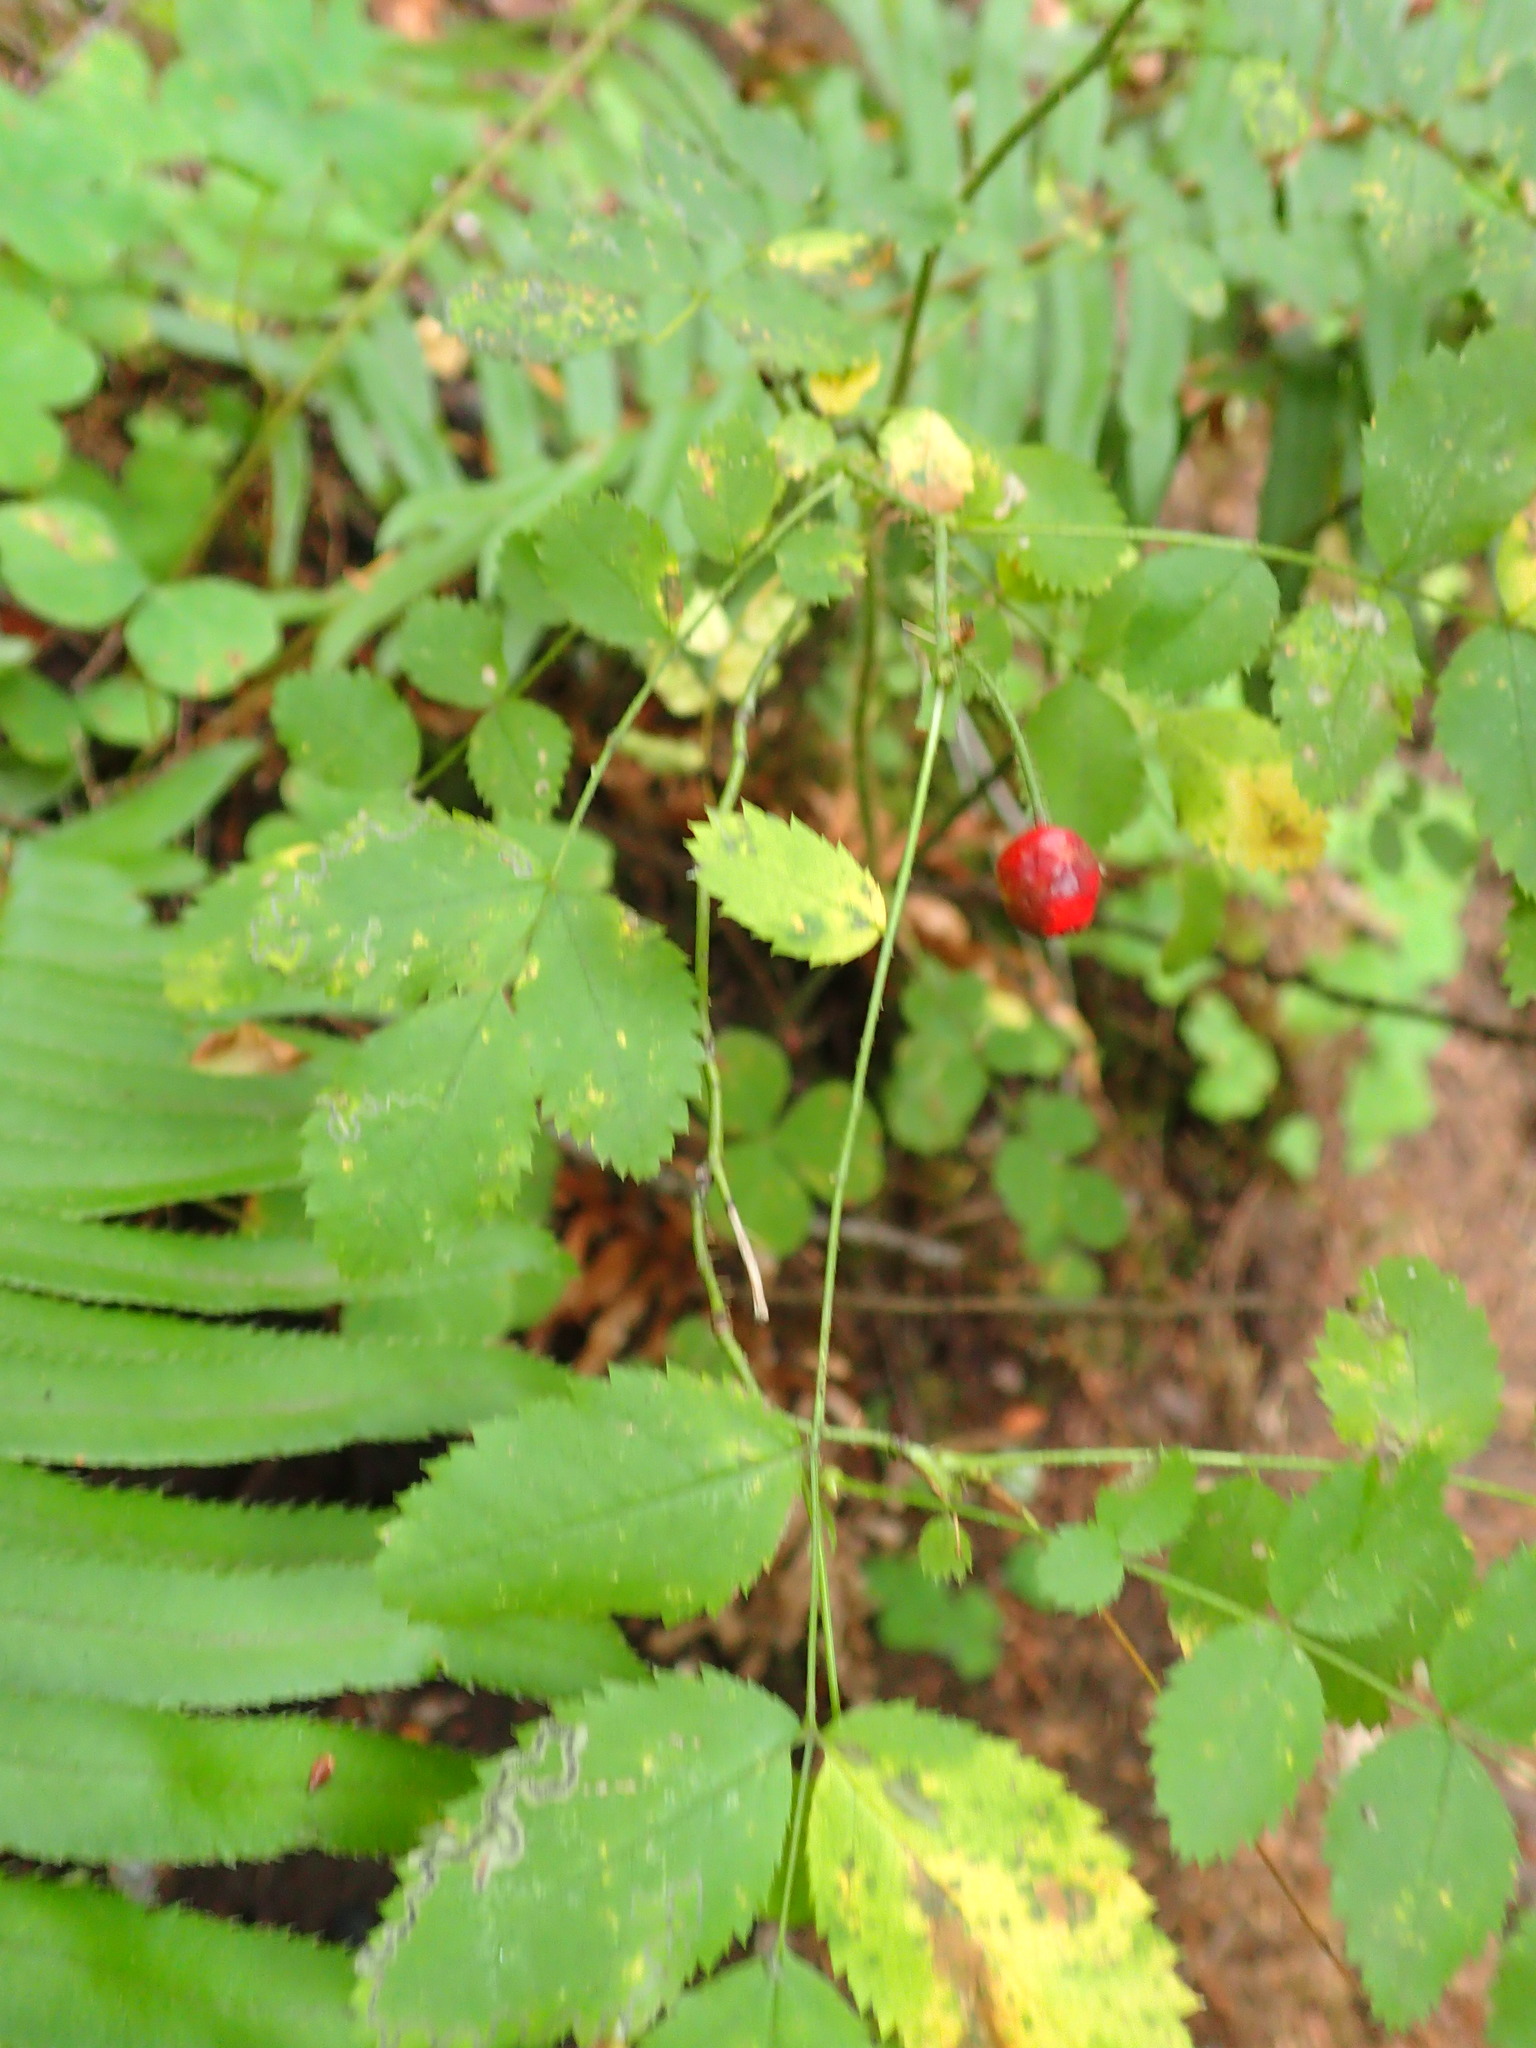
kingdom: Plantae
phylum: Tracheophyta
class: Magnoliopsida
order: Rosales
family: Rosaceae
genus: Rosa
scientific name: Rosa gymnocarpa
